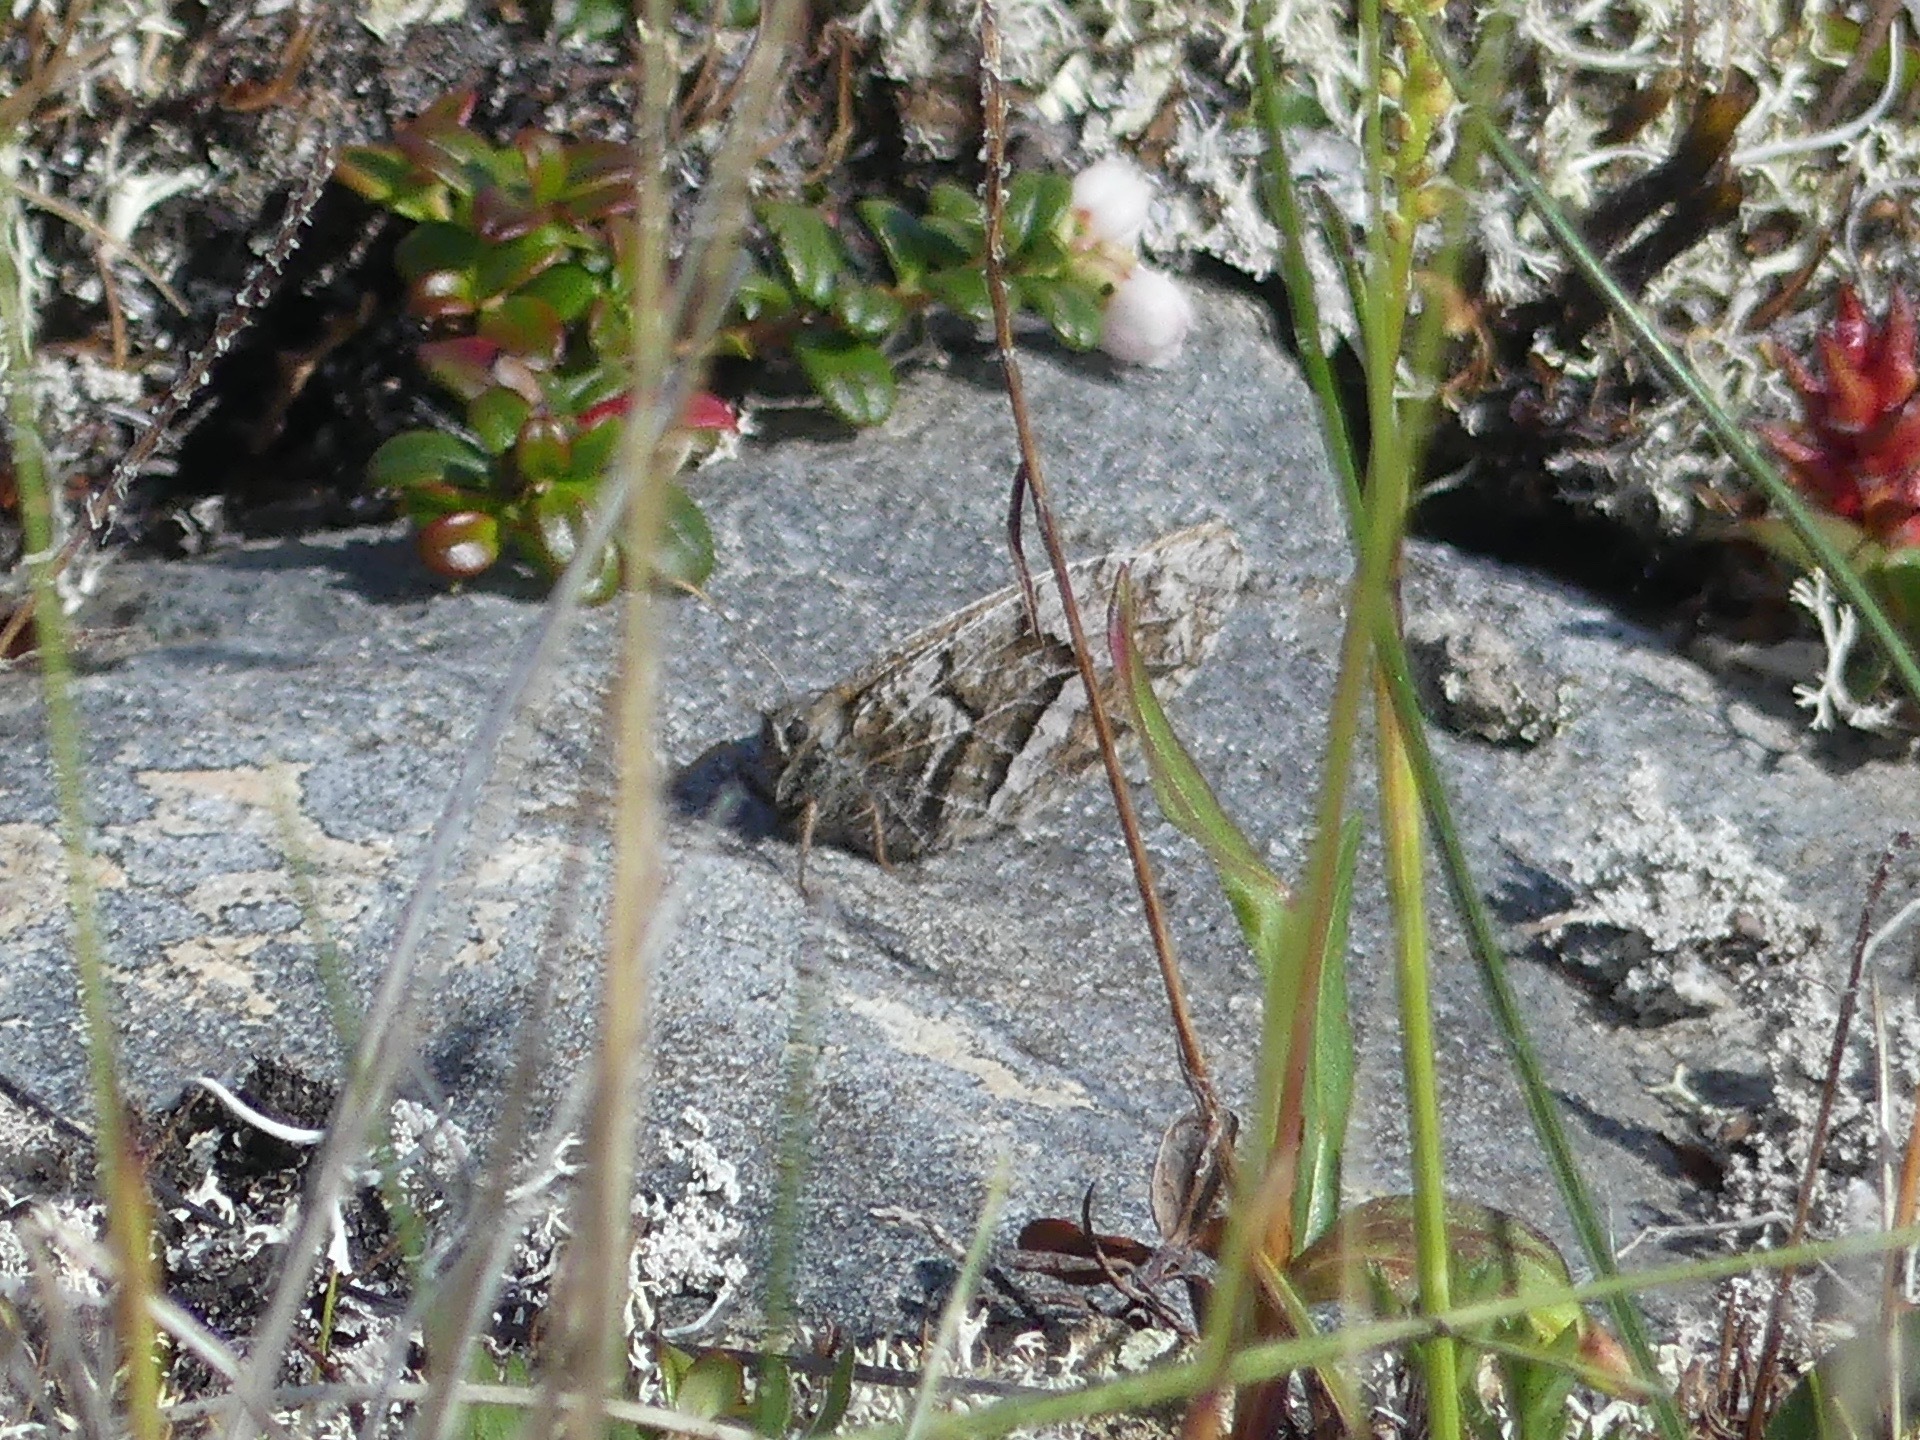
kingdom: Animalia
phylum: Arthropoda
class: Insecta
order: Lepidoptera
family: Nymphalidae
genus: Oeneis
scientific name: Oeneis bore
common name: Arctic grayling
